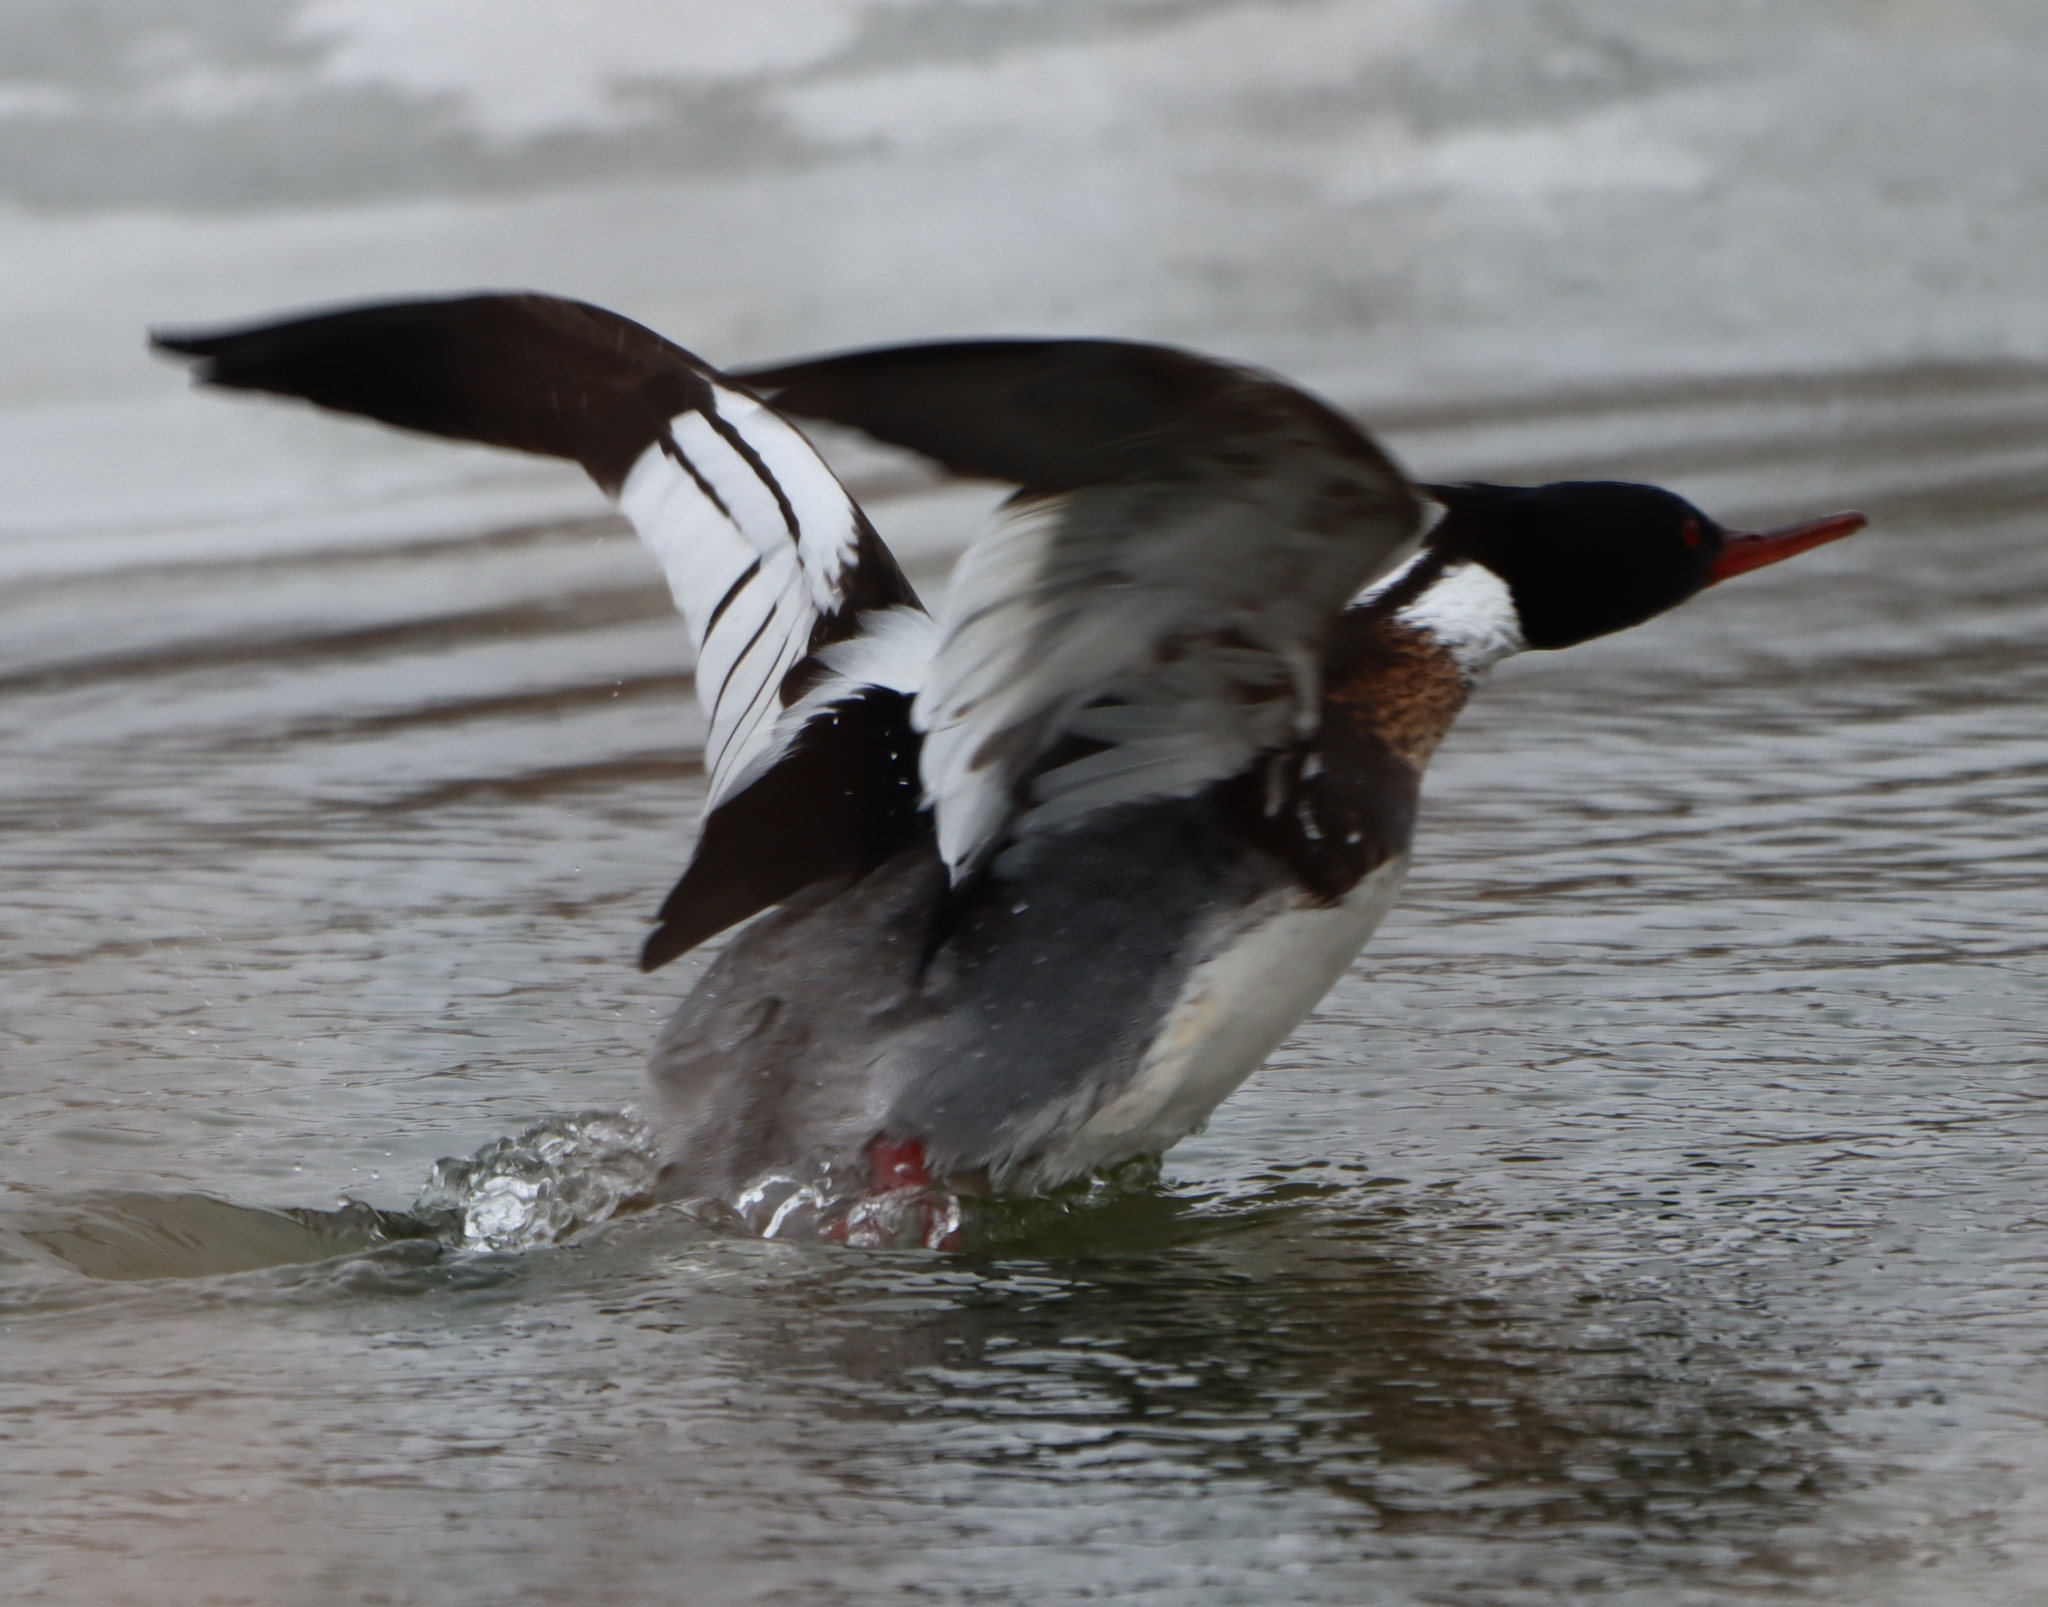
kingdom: Animalia
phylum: Chordata
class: Aves
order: Anseriformes
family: Anatidae
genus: Mergus
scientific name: Mergus serrator
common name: Red-breasted merganser
